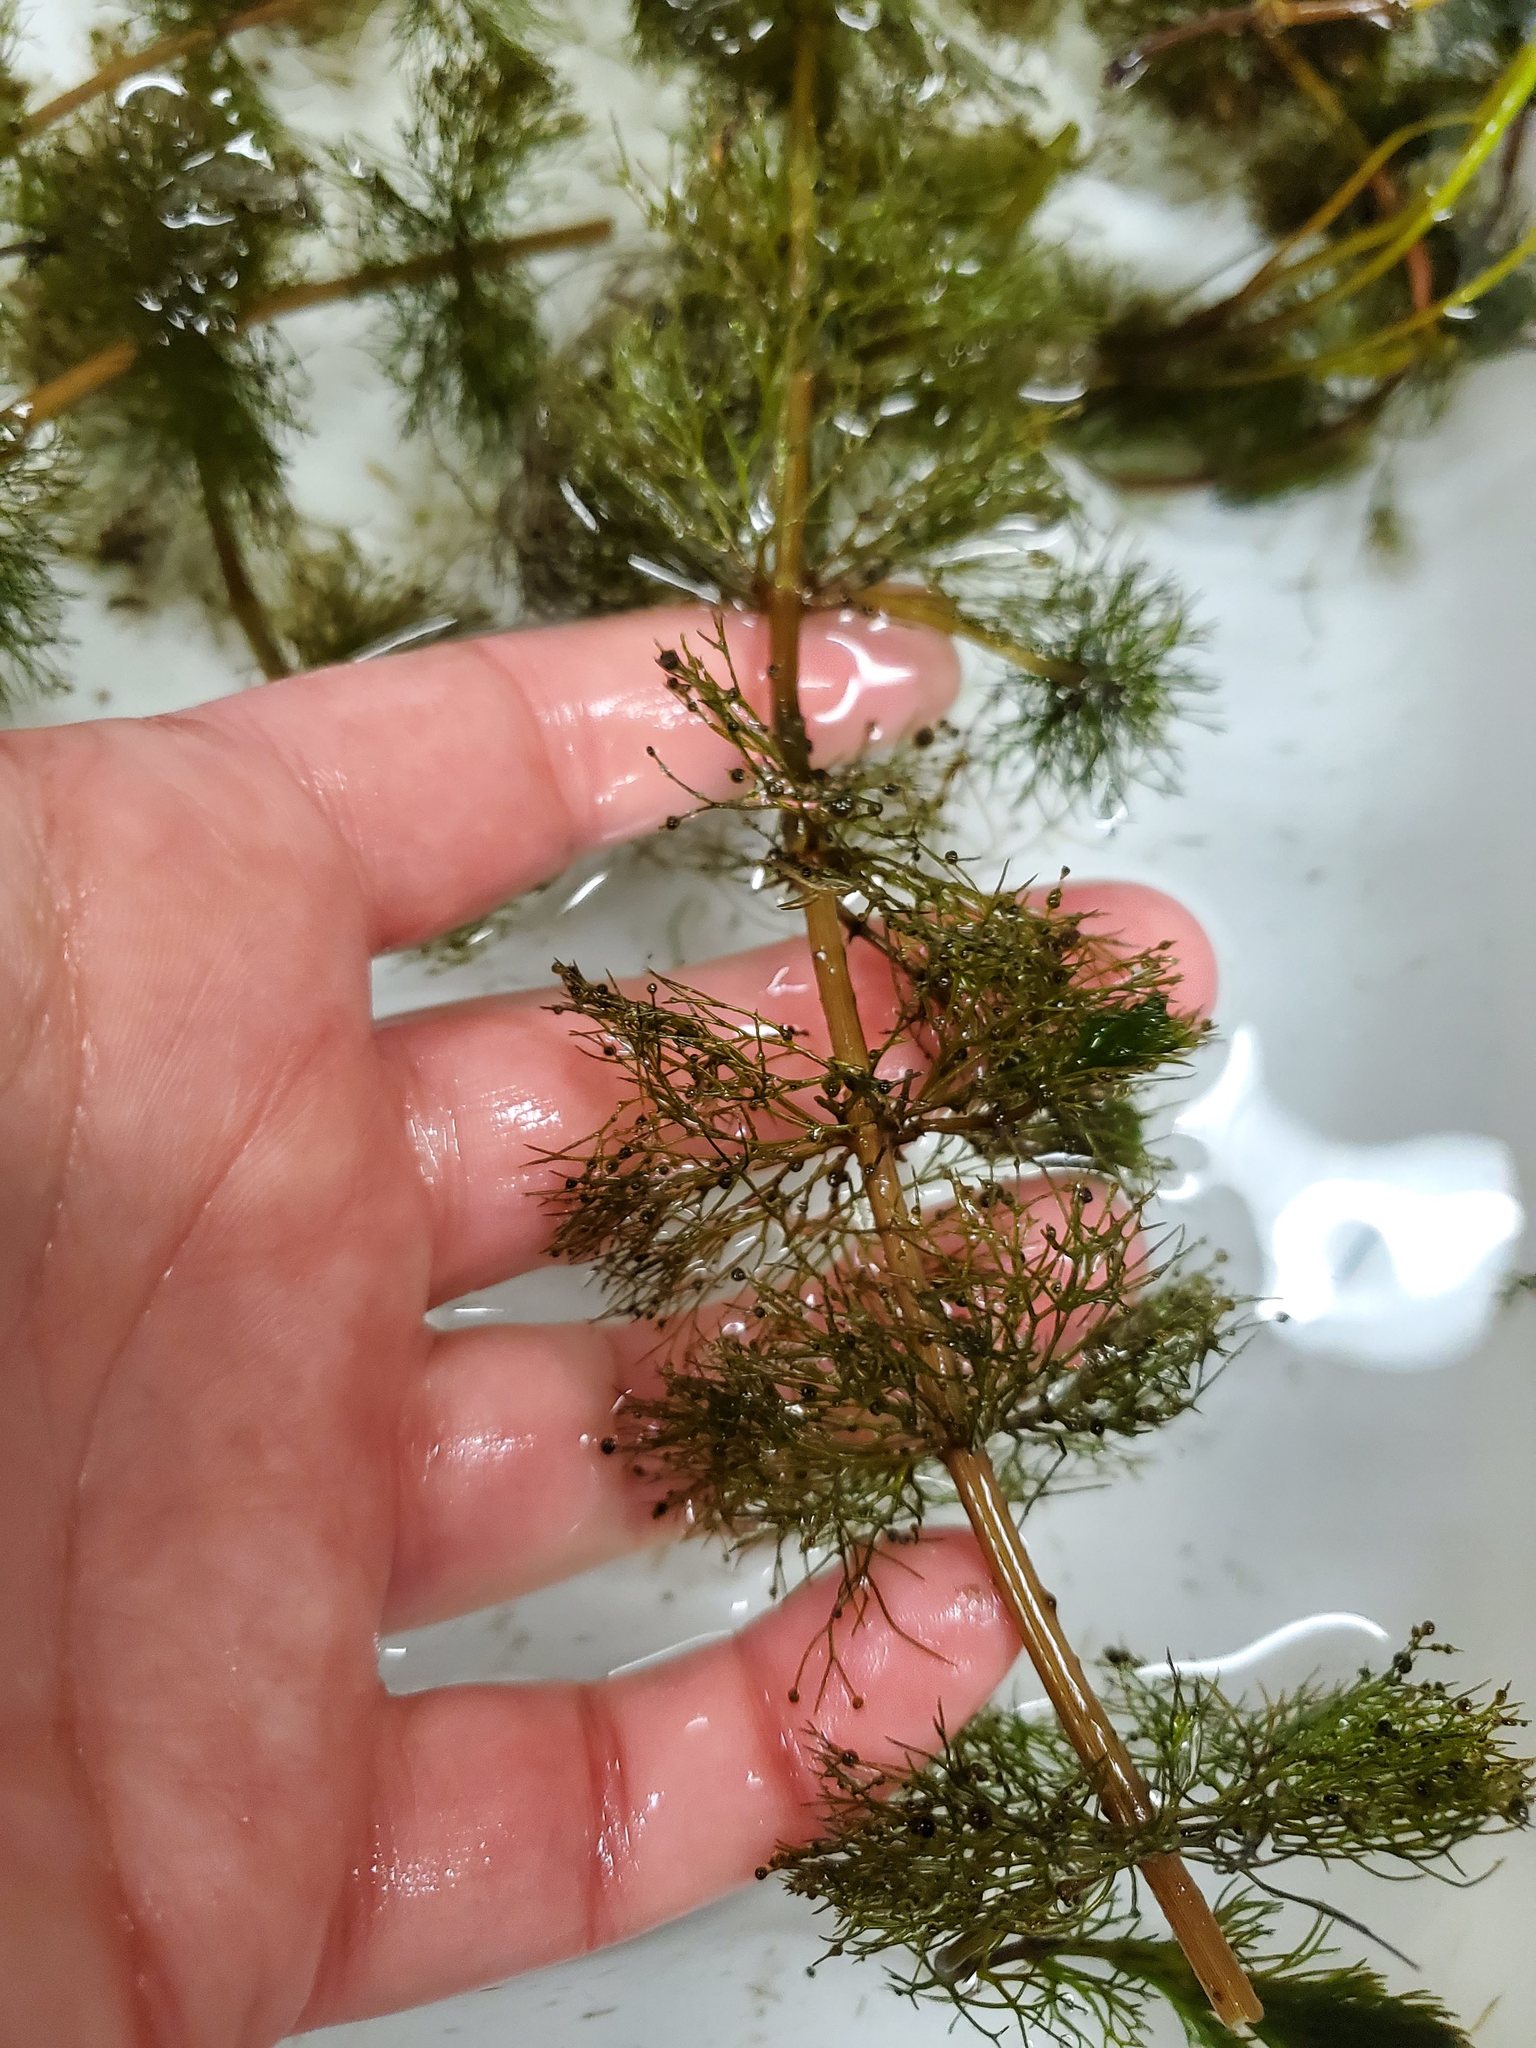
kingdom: Plantae
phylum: Tracheophyta
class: Magnoliopsida
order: Asterales
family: Asteraceae
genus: Bidens
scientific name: Bidens beckii
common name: Beck's beggarticks
